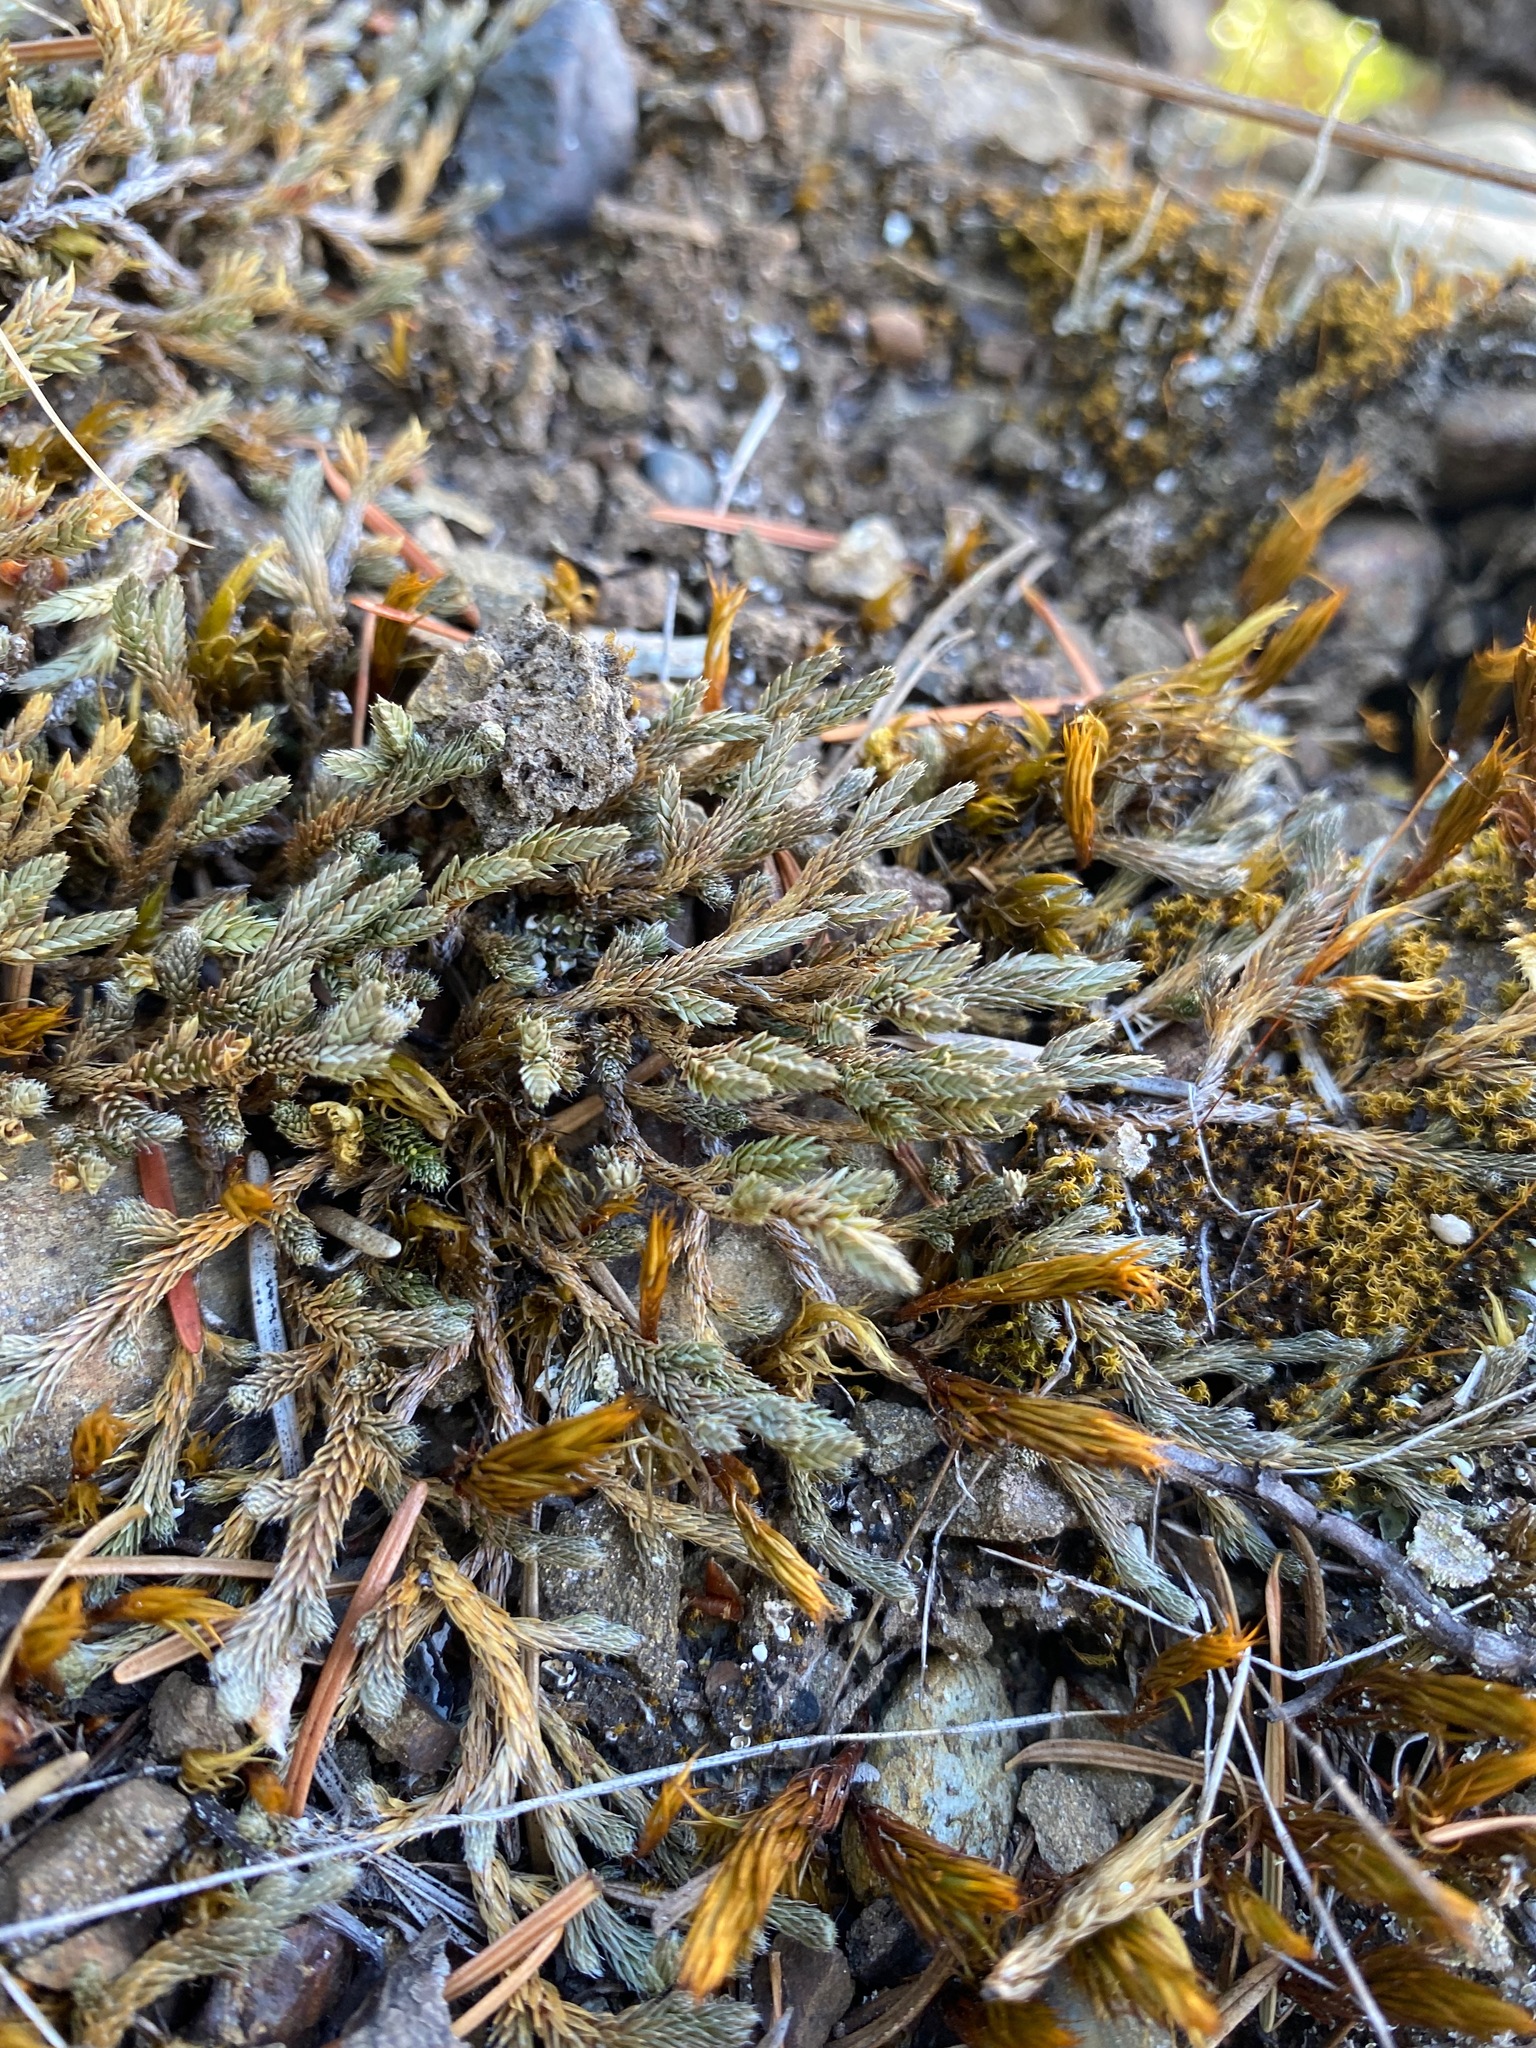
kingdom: Plantae
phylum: Tracheophyta
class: Lycopodiopsida
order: Selaginellales
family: Selaginellaceae
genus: Selaginella
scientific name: Selaginella wallacei
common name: Wallace's selaginella
